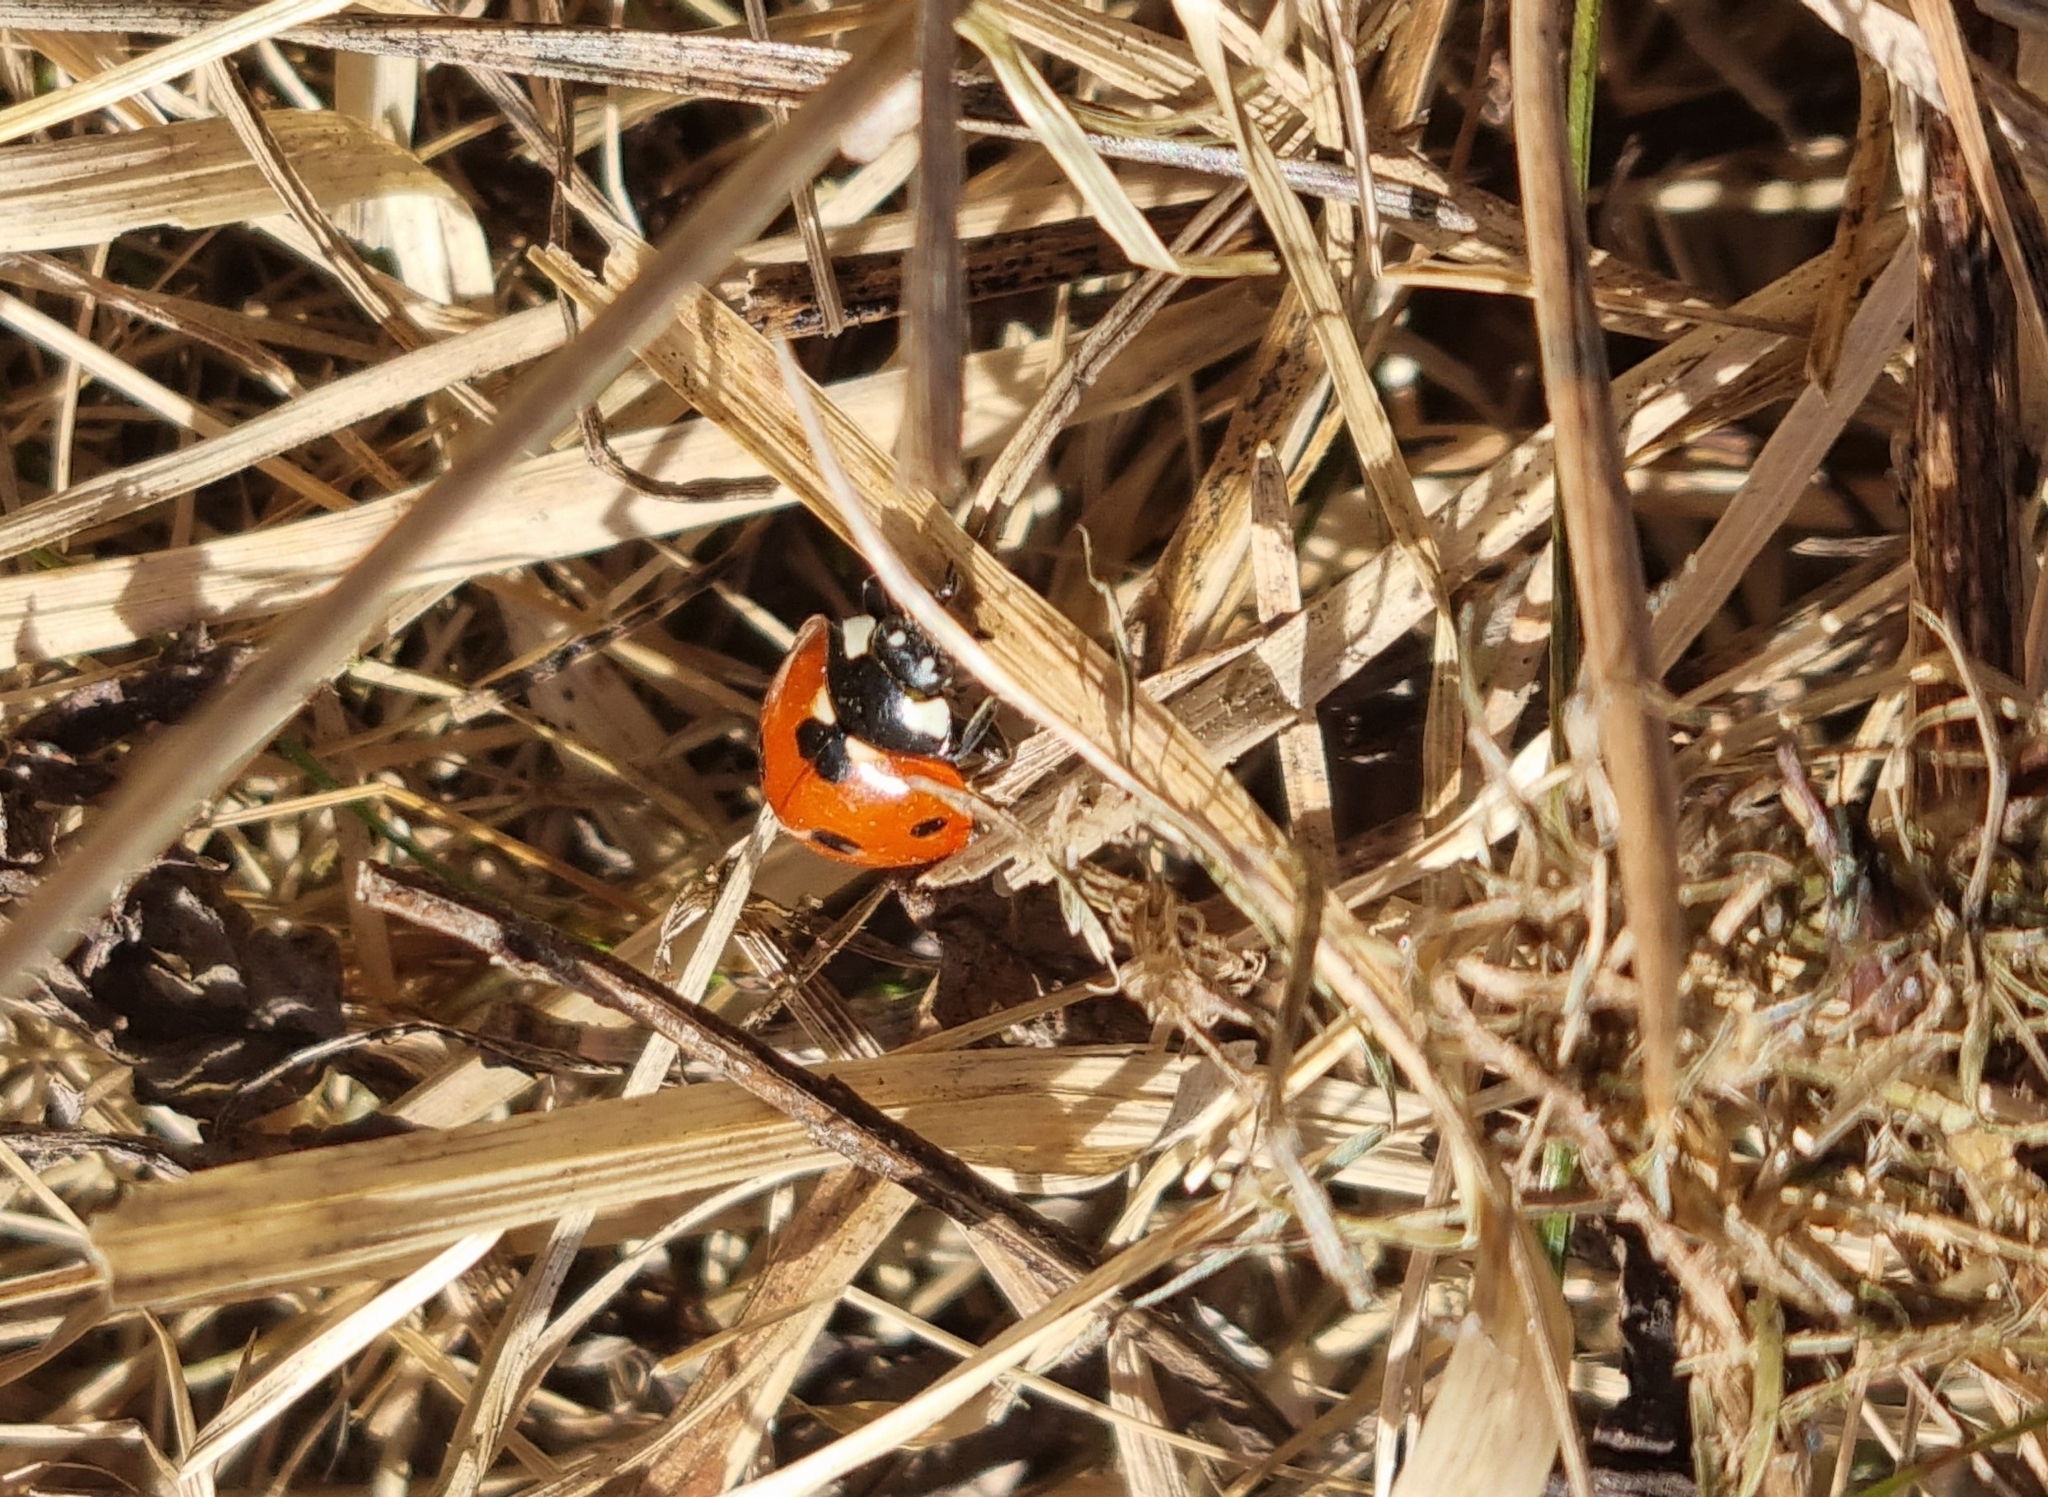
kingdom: Animalia
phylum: Arthropoda
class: Insecta
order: Coleoptera
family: Coccinellidae
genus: Coccinella
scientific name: Coccinella septempunctata
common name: Sevenspotted lady beetle
